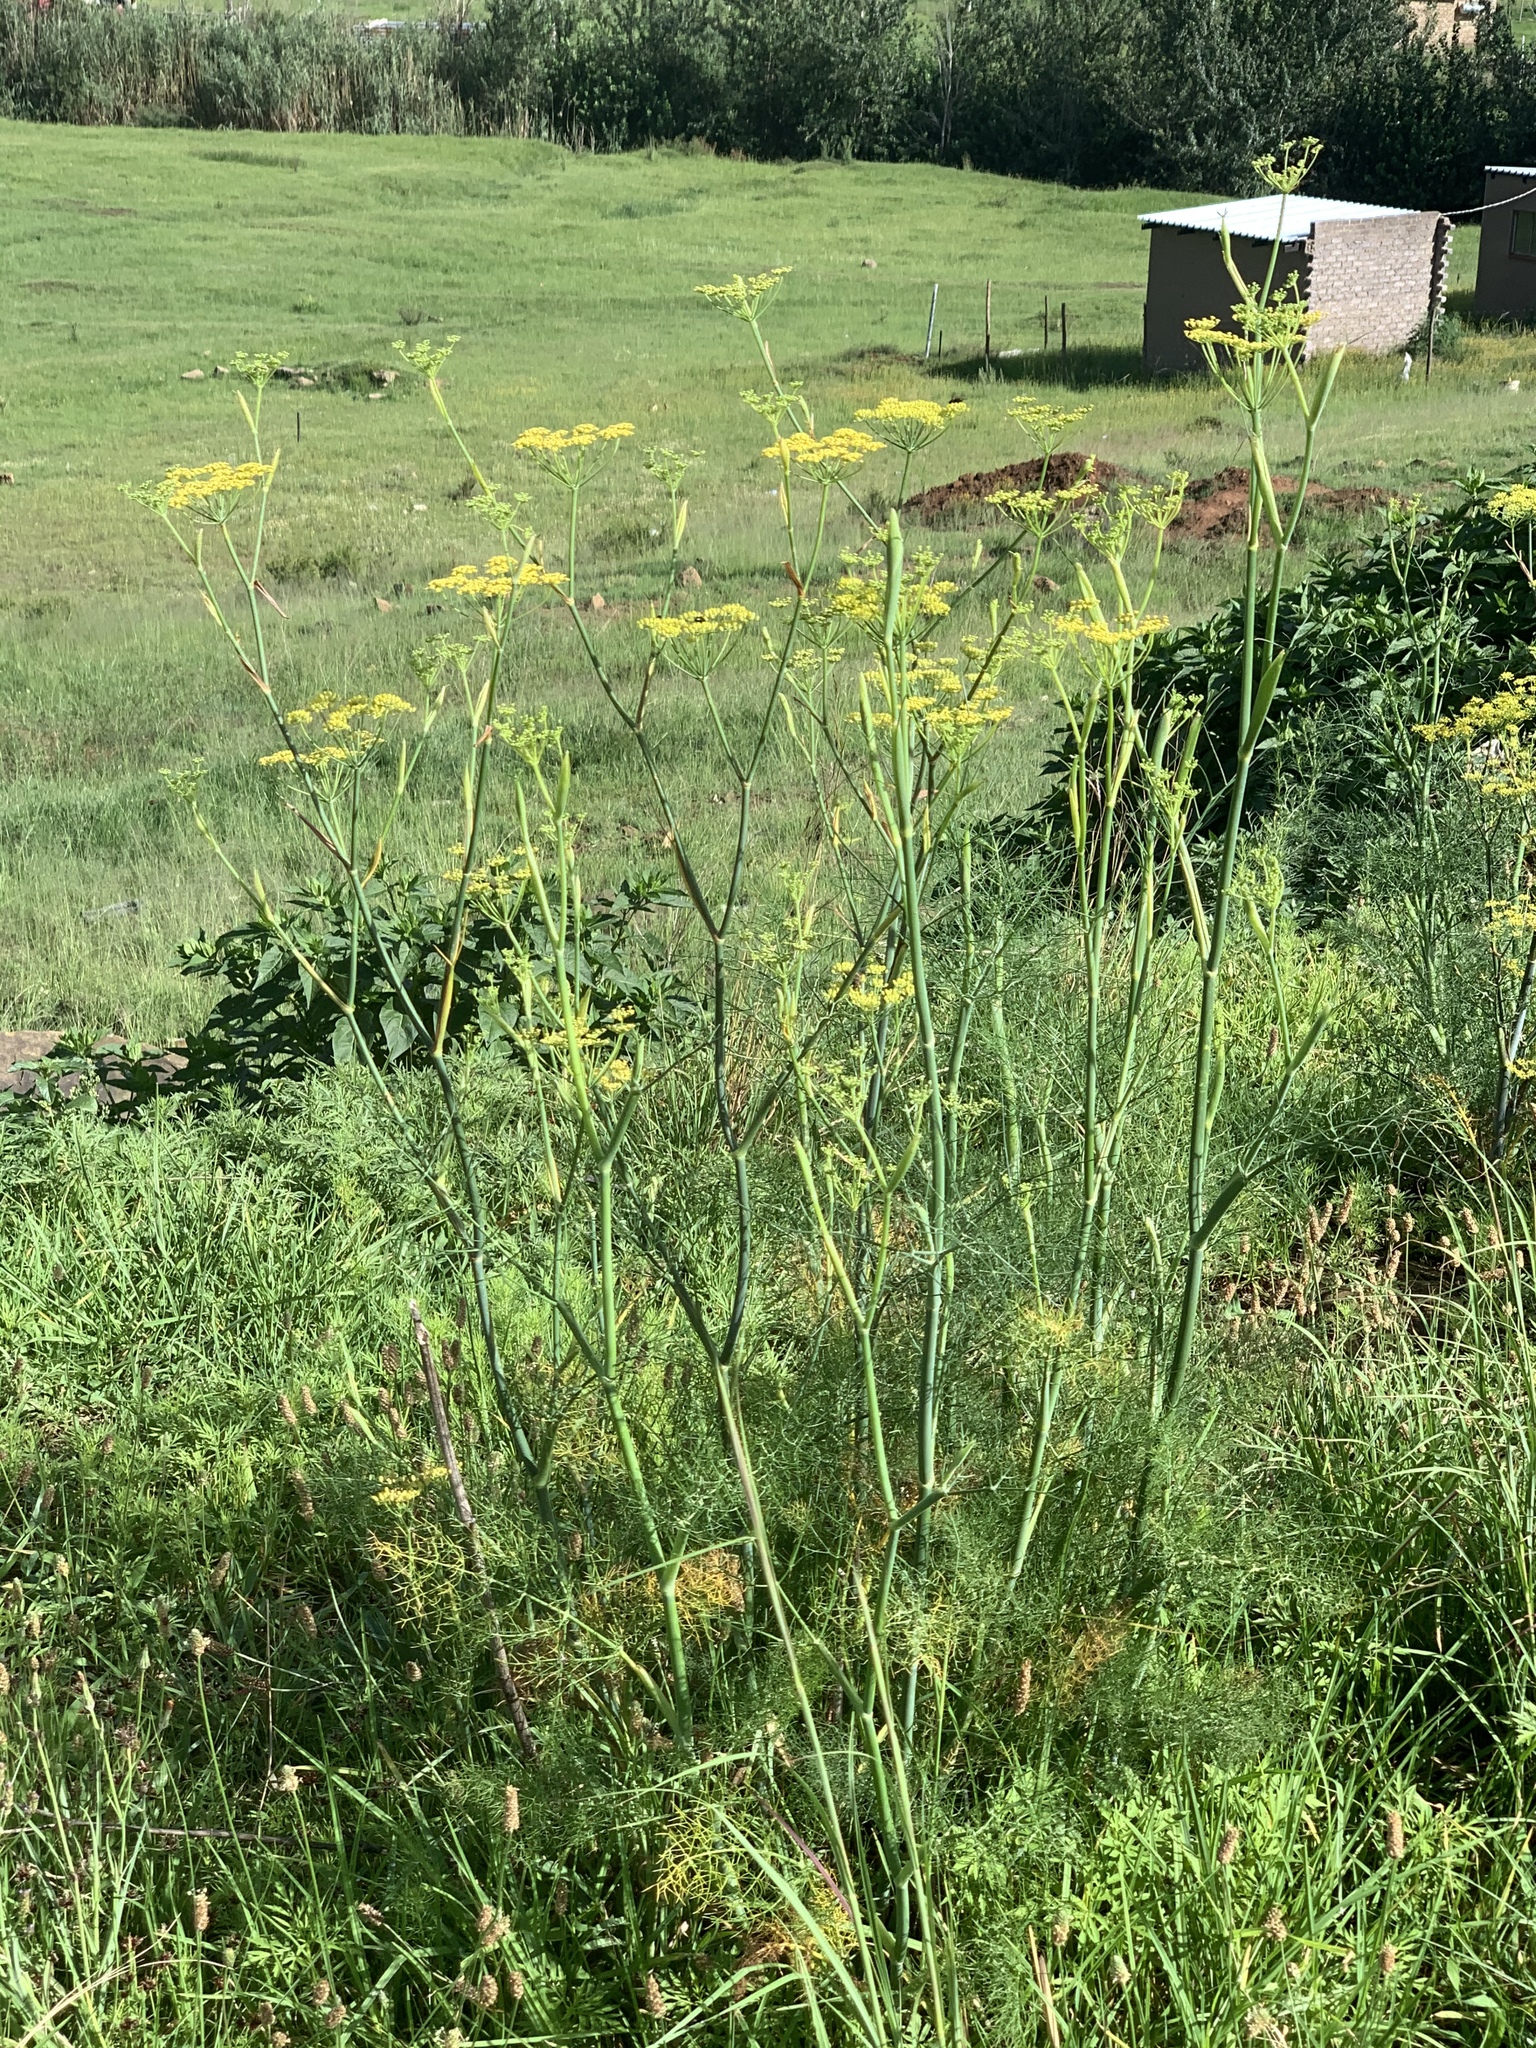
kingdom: Plantae
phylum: Tracheophyta
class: Magnoliopsida
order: Apiales
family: Apiaceae
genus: Foeniculum
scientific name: Foeniculum vulgare
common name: Fennel
